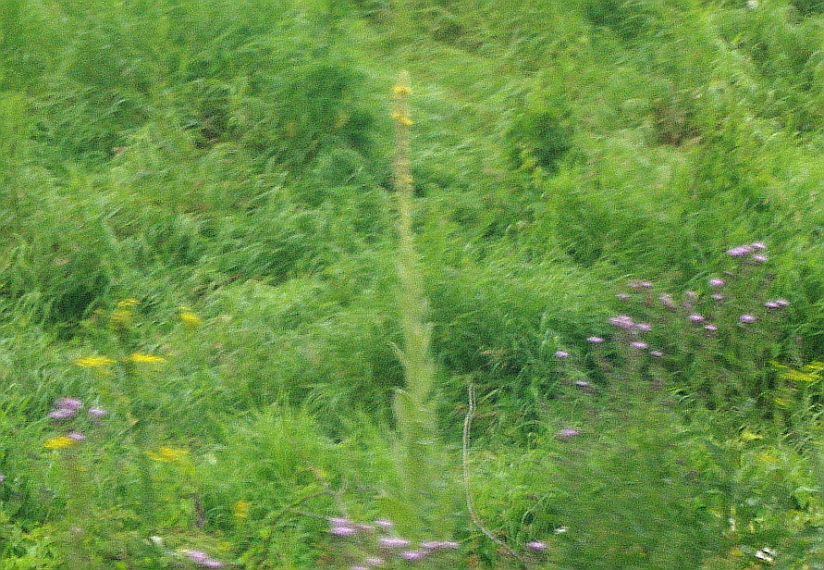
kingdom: Plantae
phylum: Tracheophyta
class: Magnoliopsida
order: Lamiales
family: Scrophulariaceae
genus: Verbascum
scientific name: Verbascum thapsus
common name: Common mullein
